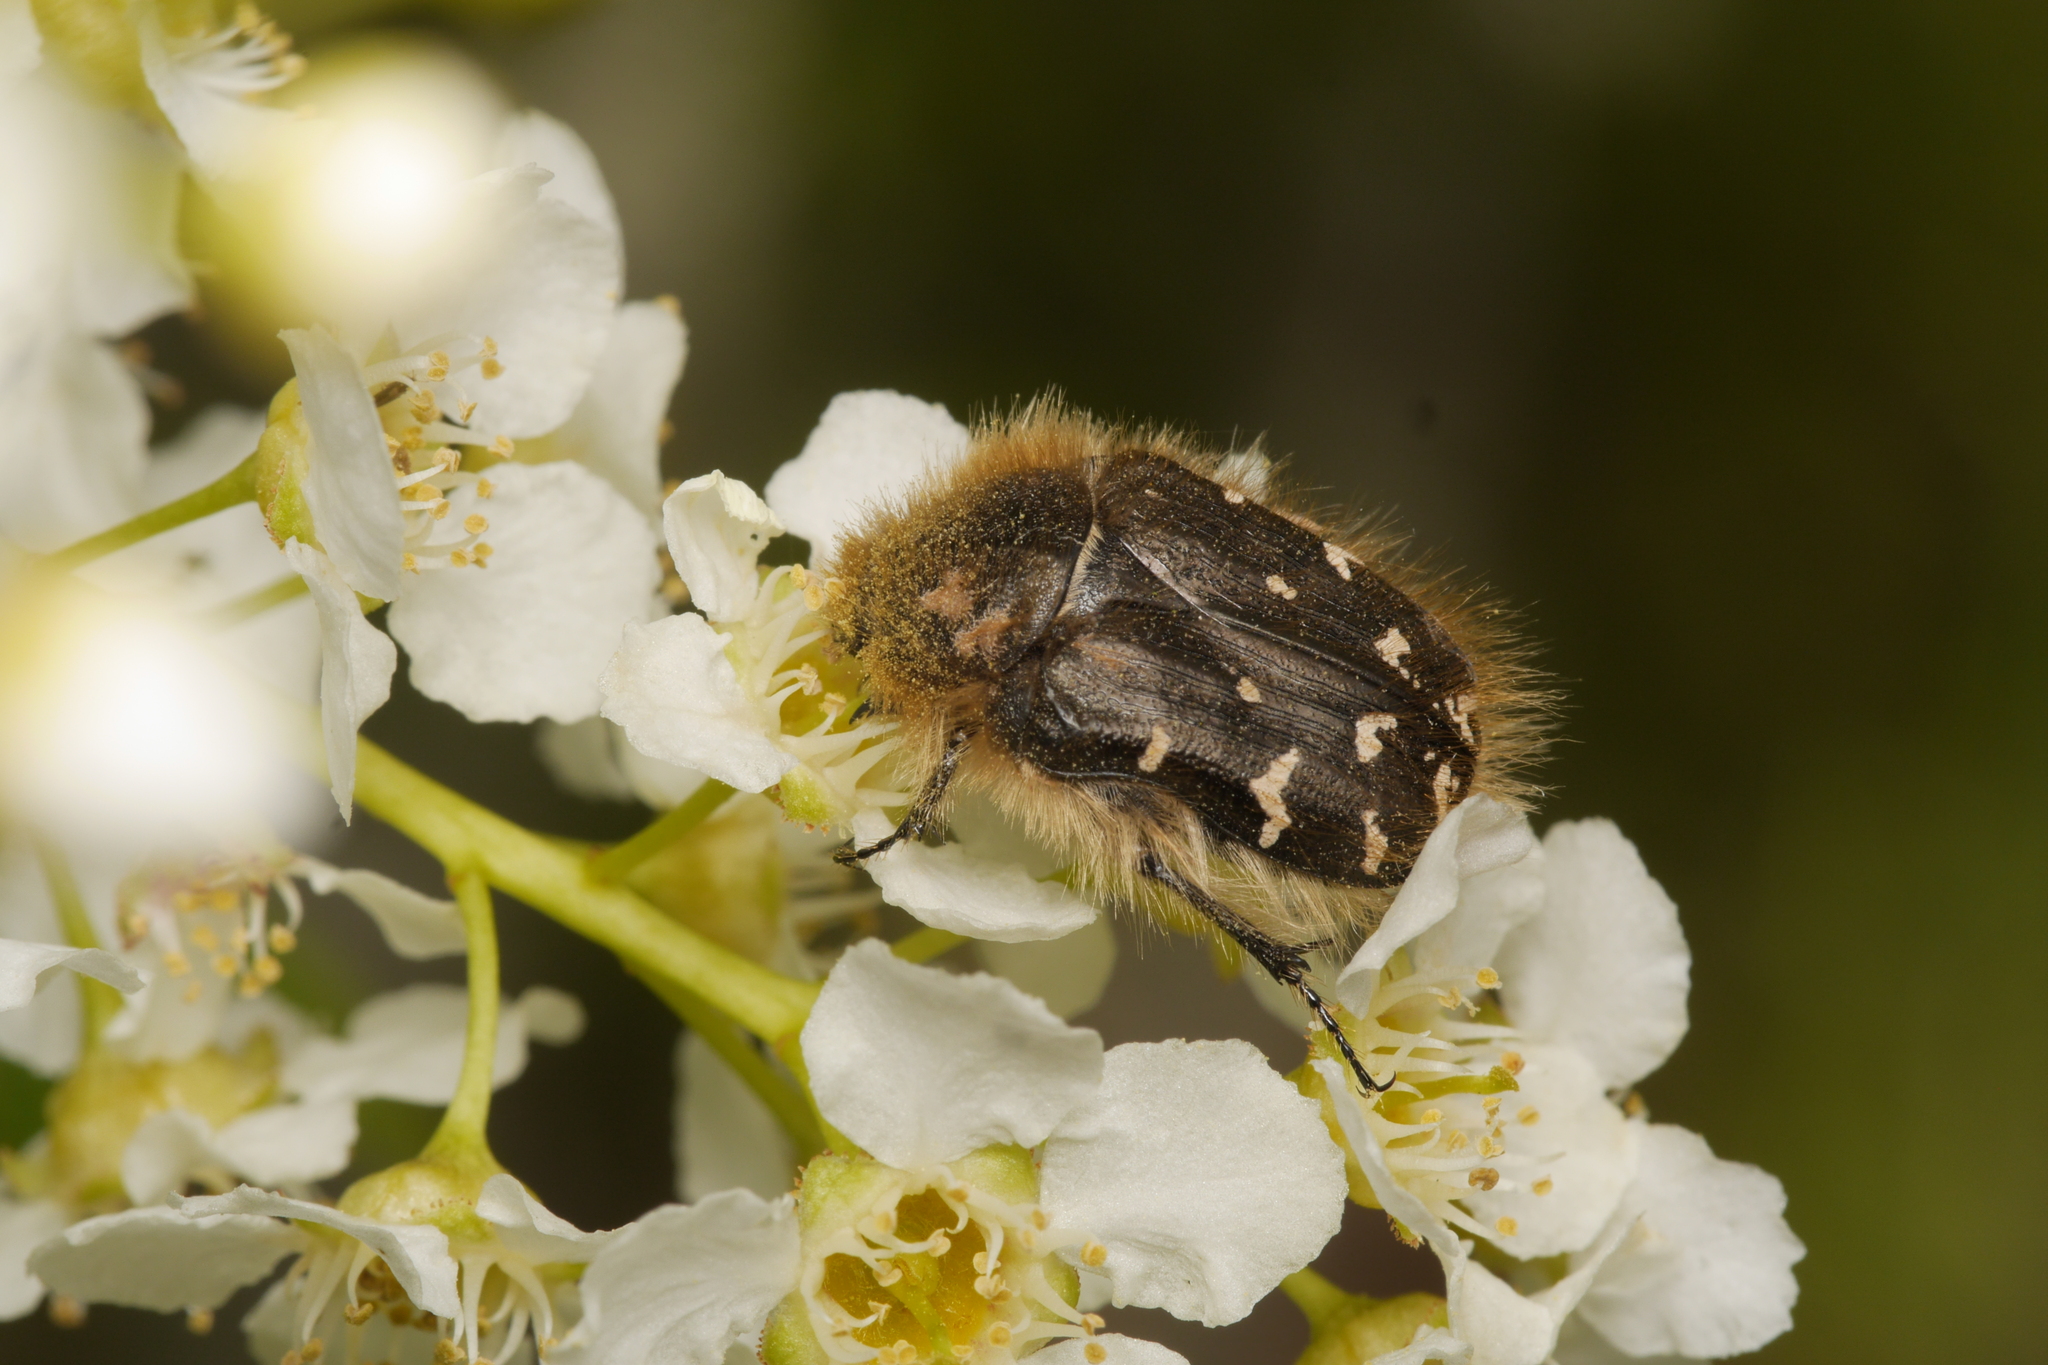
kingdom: Animalia
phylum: Arthropoda
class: Insecta
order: Coleoptera
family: Scarabaeidae
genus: Tropinota
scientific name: Tropinota hirta
